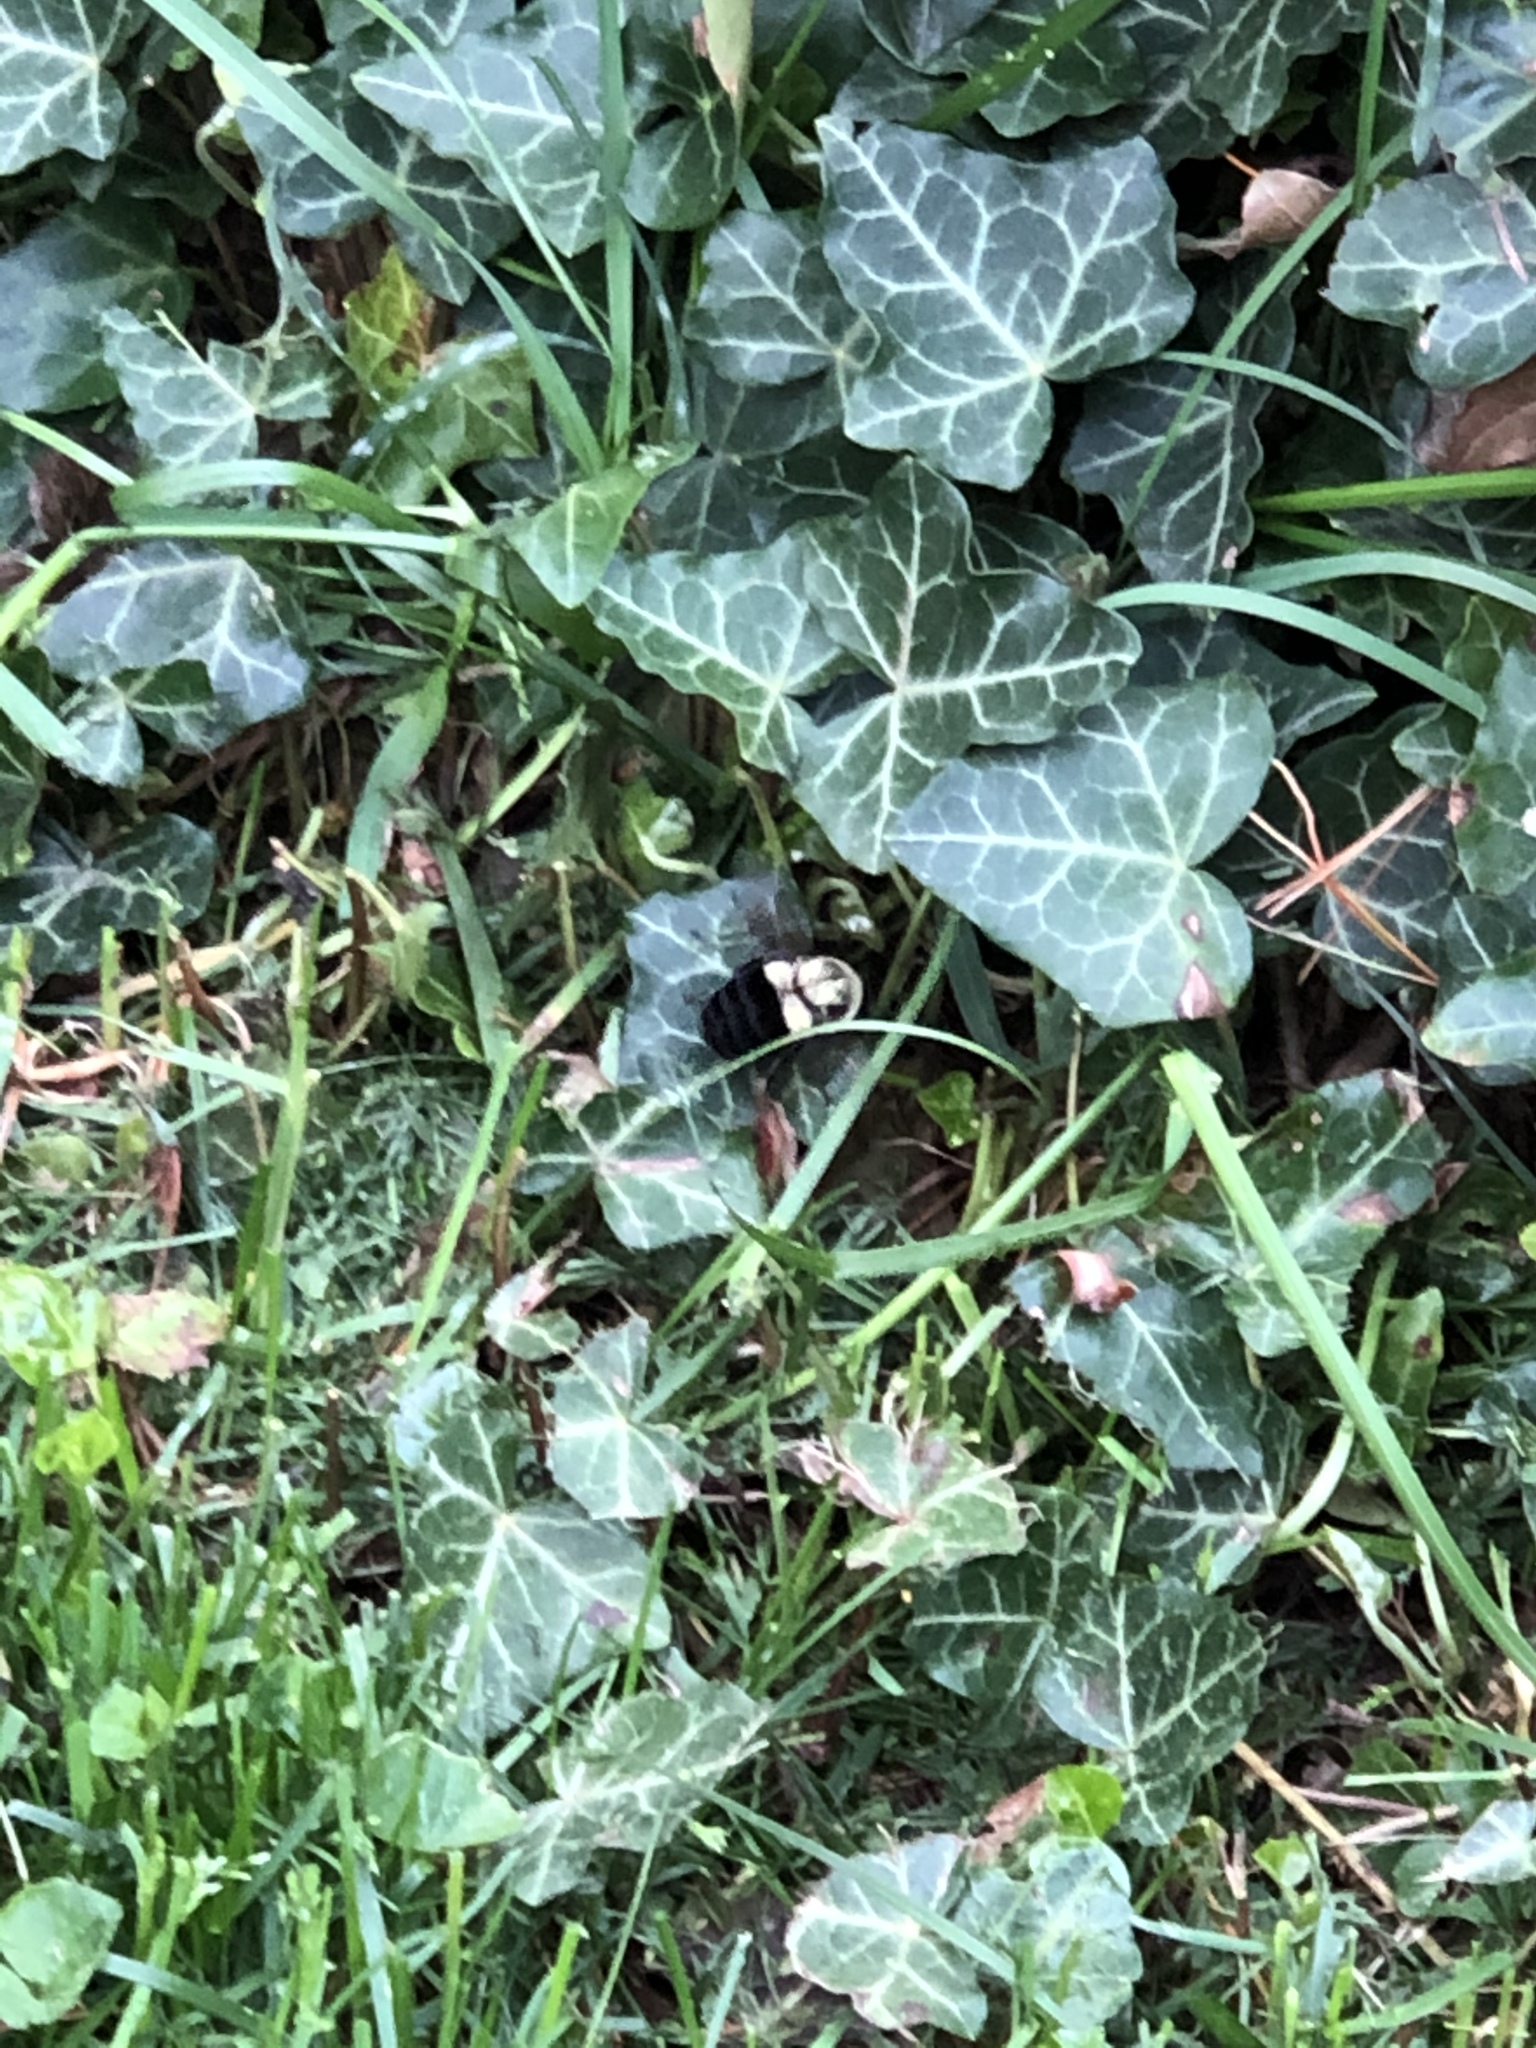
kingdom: Animalia
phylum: Arthropoda
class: Insecta
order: Hymenoptera
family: Apidae
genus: Bombus
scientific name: Bombus impatiens
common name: Common eastern bumble bee
